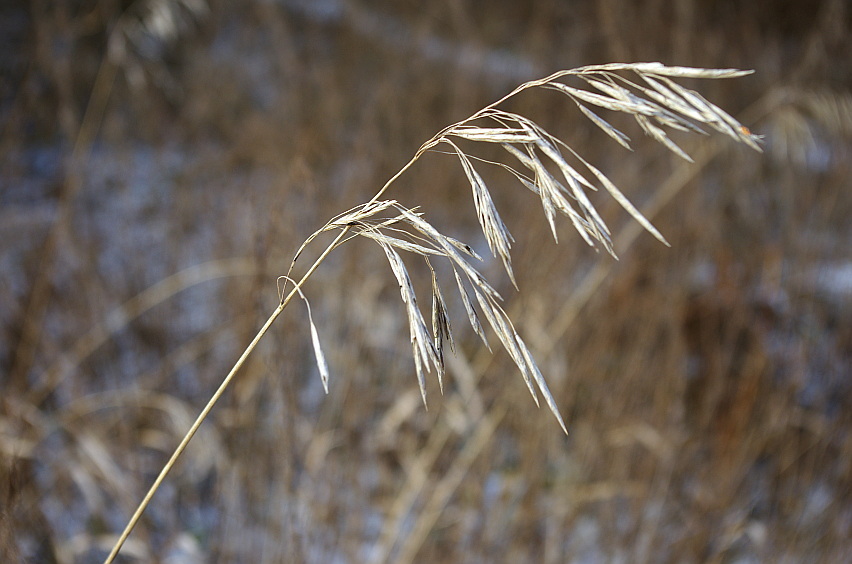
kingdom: Plantae
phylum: Tracheophyta
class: Liliopsida
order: Poales
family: Poaceae
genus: Bromus
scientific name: Bromus inermis
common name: Smooth brome
